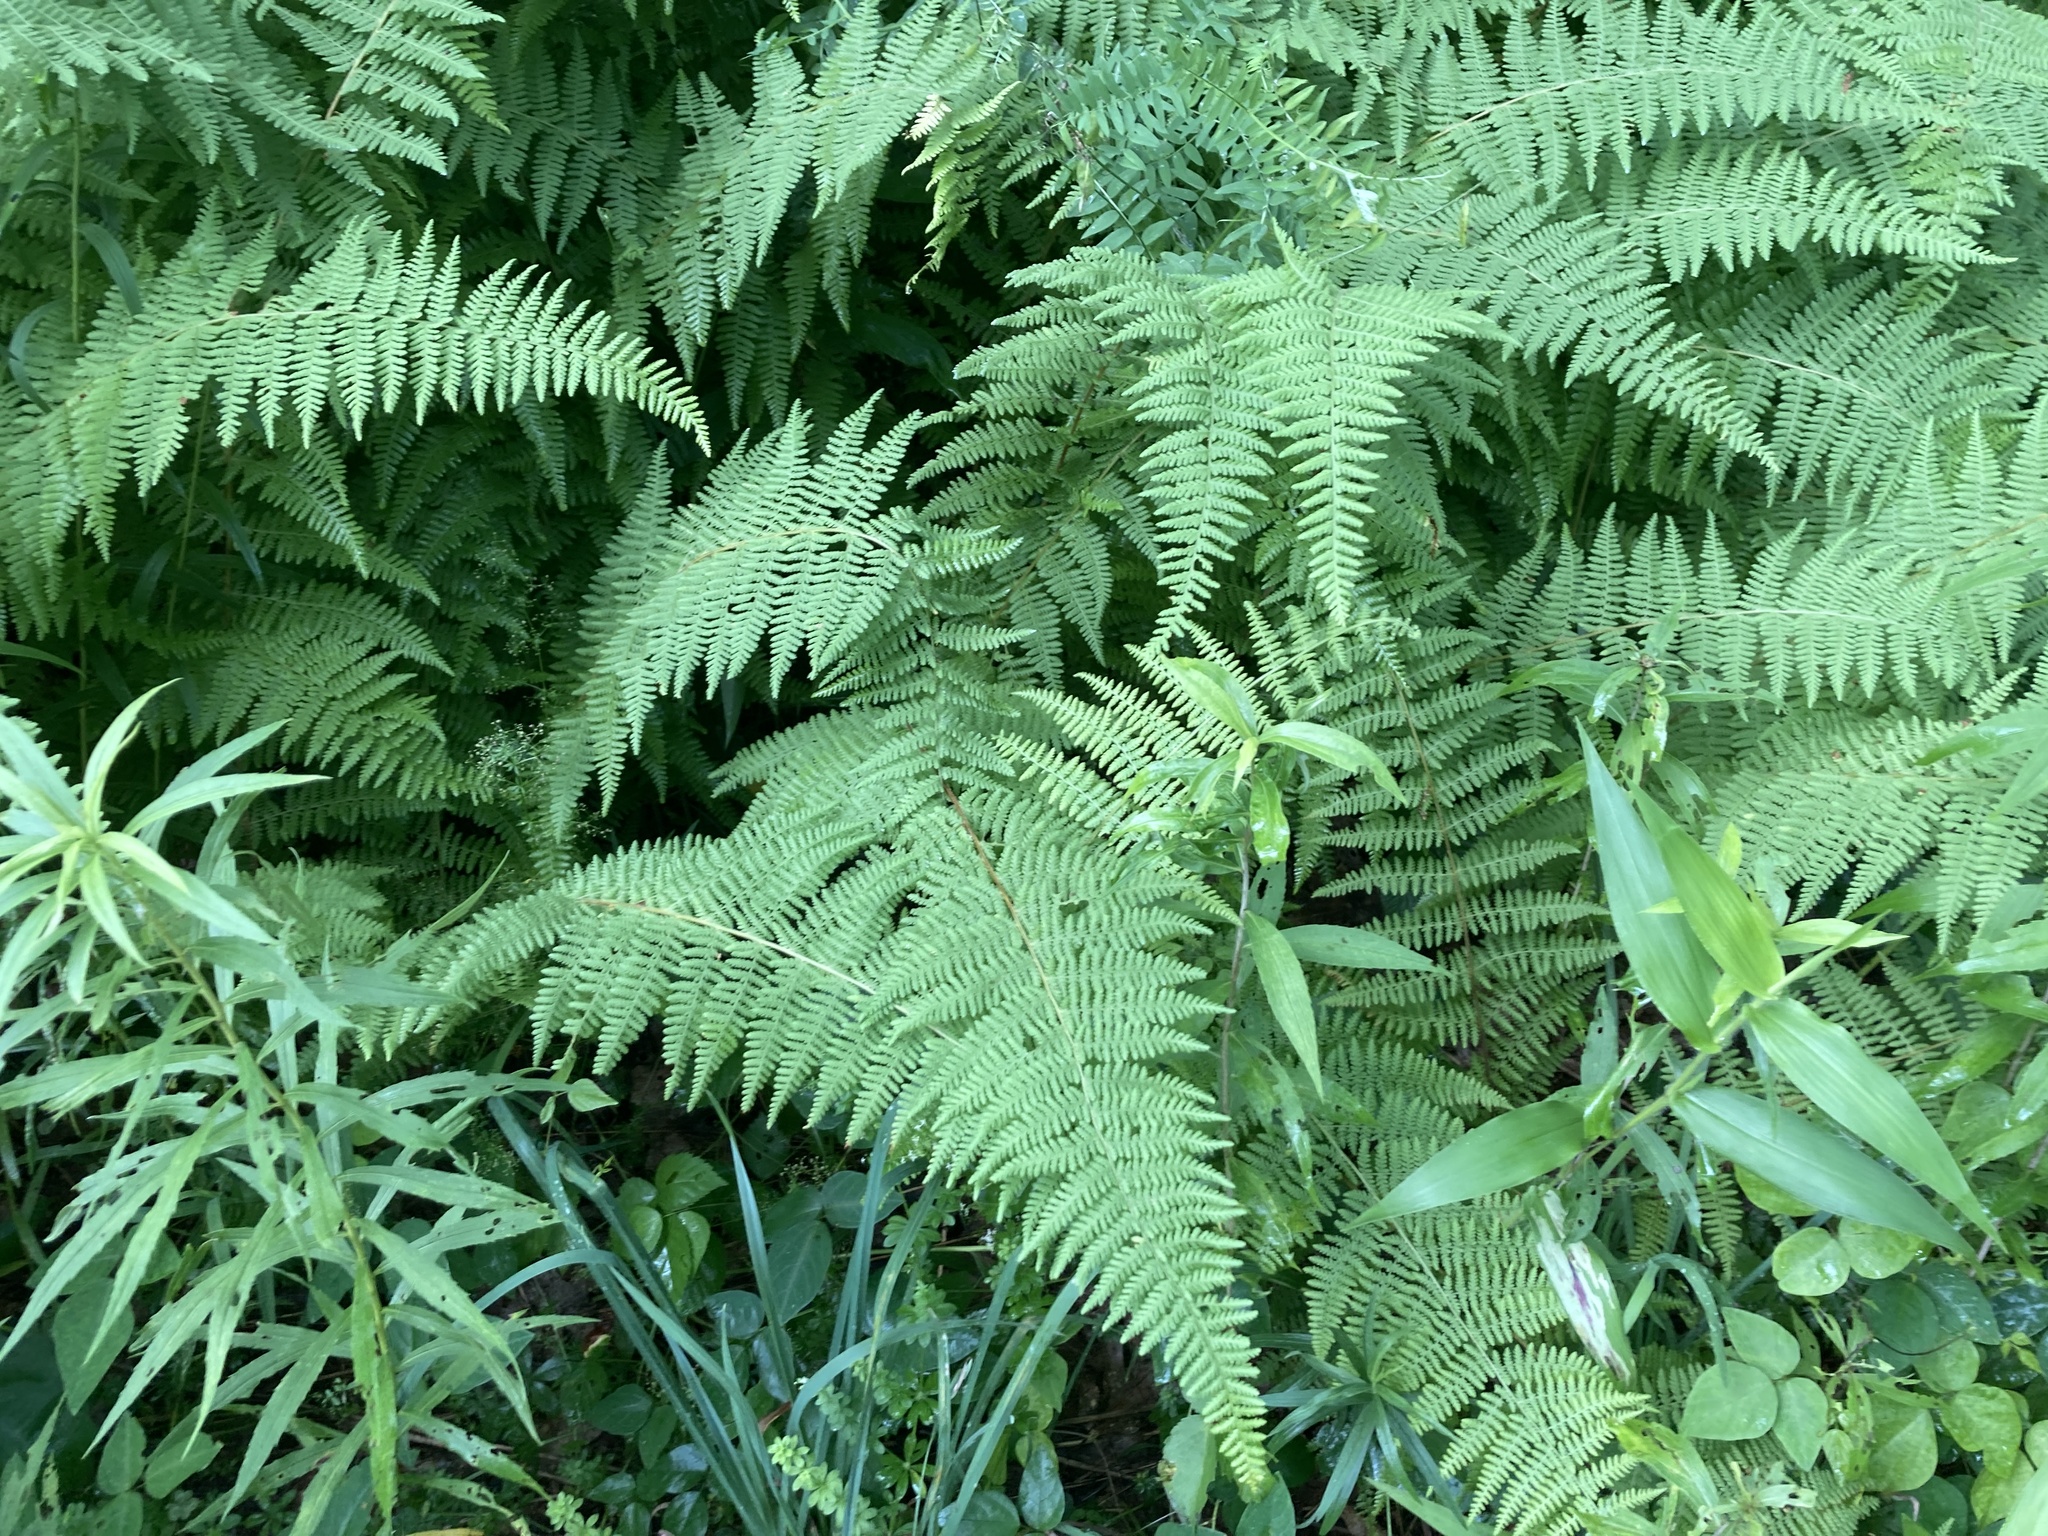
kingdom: Plantae
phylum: Tracheophyta
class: Polypodiopsida
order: Polypodiales
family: Dennstaedtiaceae
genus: Sitobolium
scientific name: Sitobolium punctilobum
